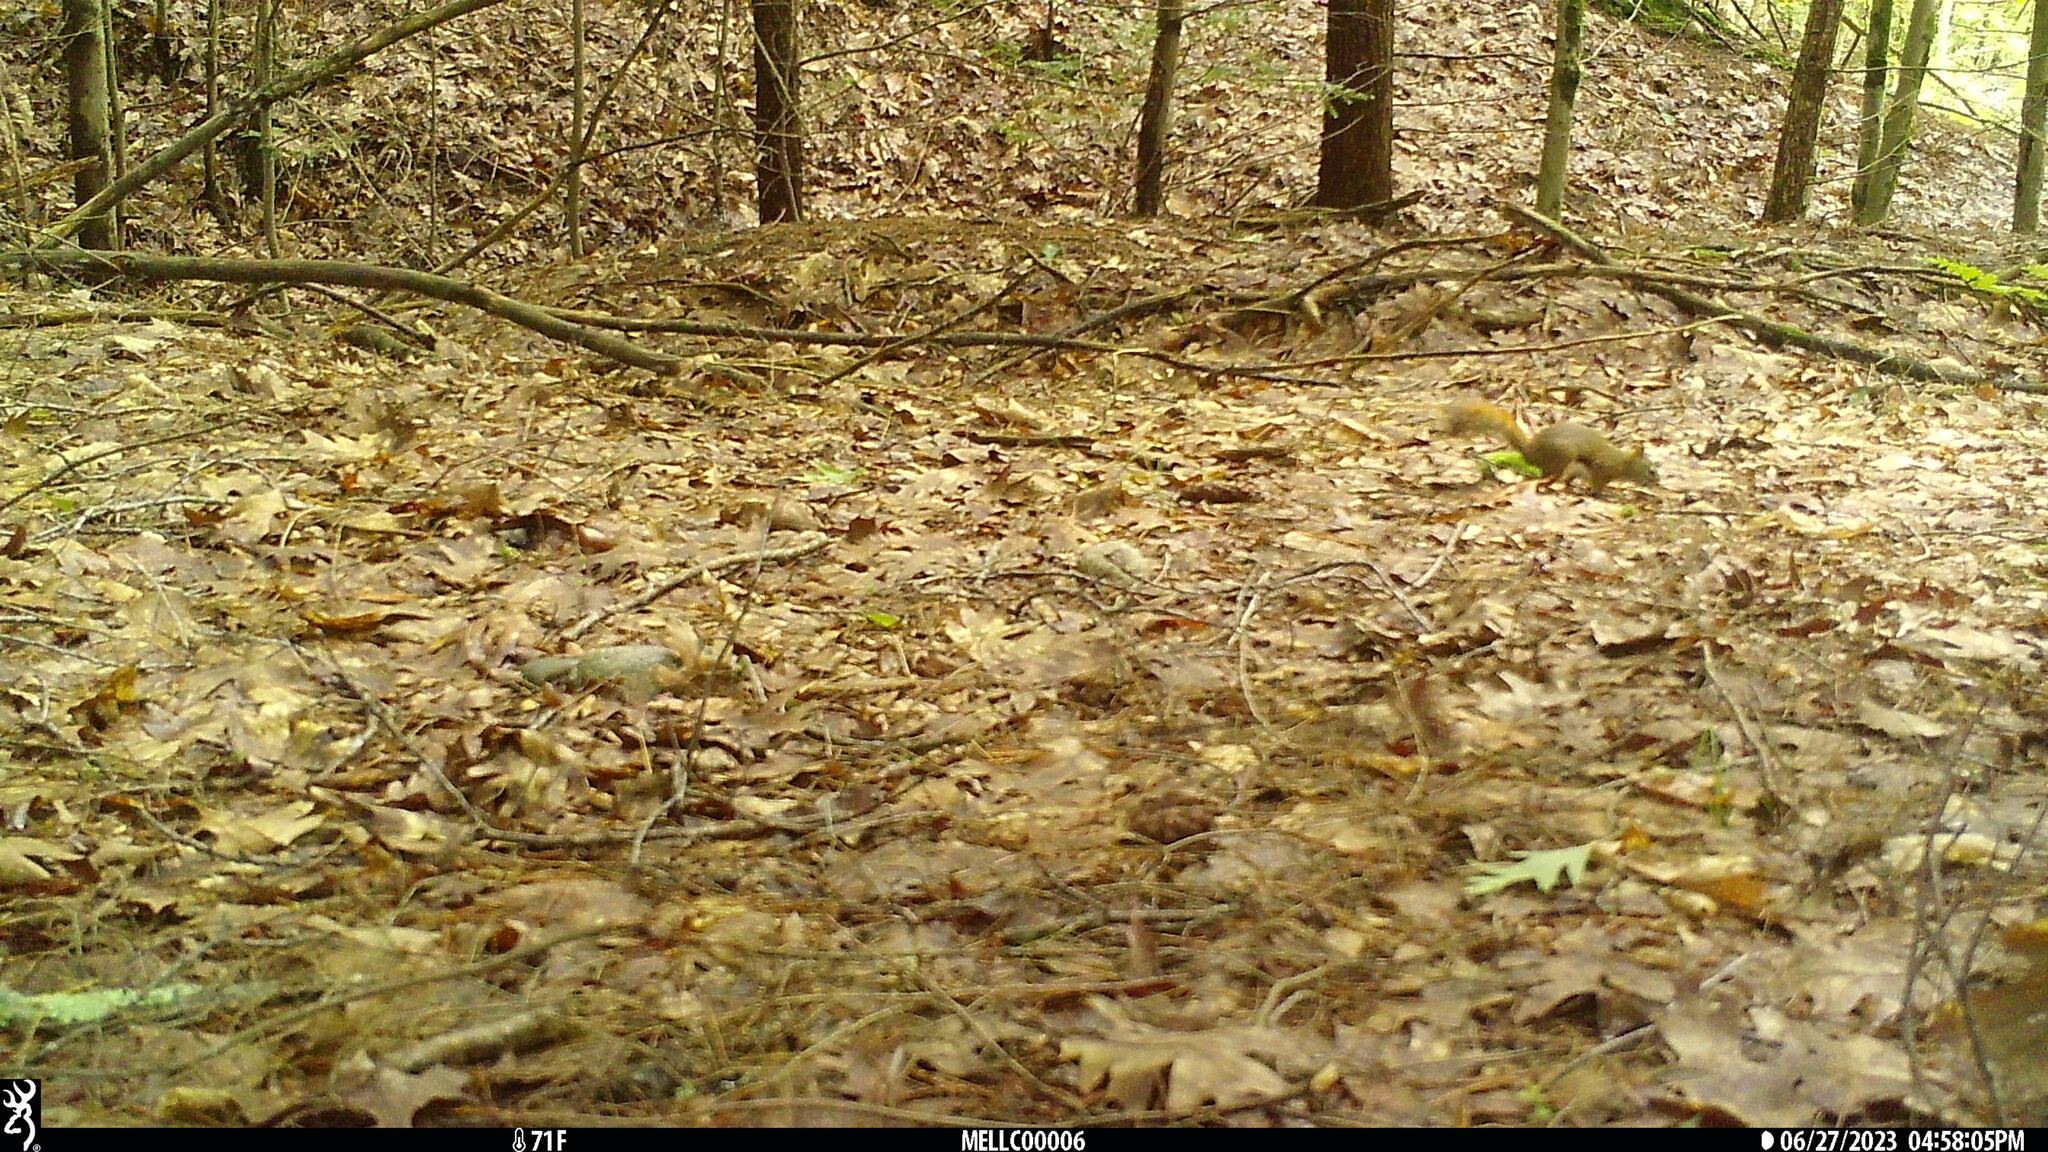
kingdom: Animalia
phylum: Chordata
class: Mammalia
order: Rodentia
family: Sciuridae
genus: Tamiasciurus
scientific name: Tamiasciurus hudsonicus
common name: Red squirrel
